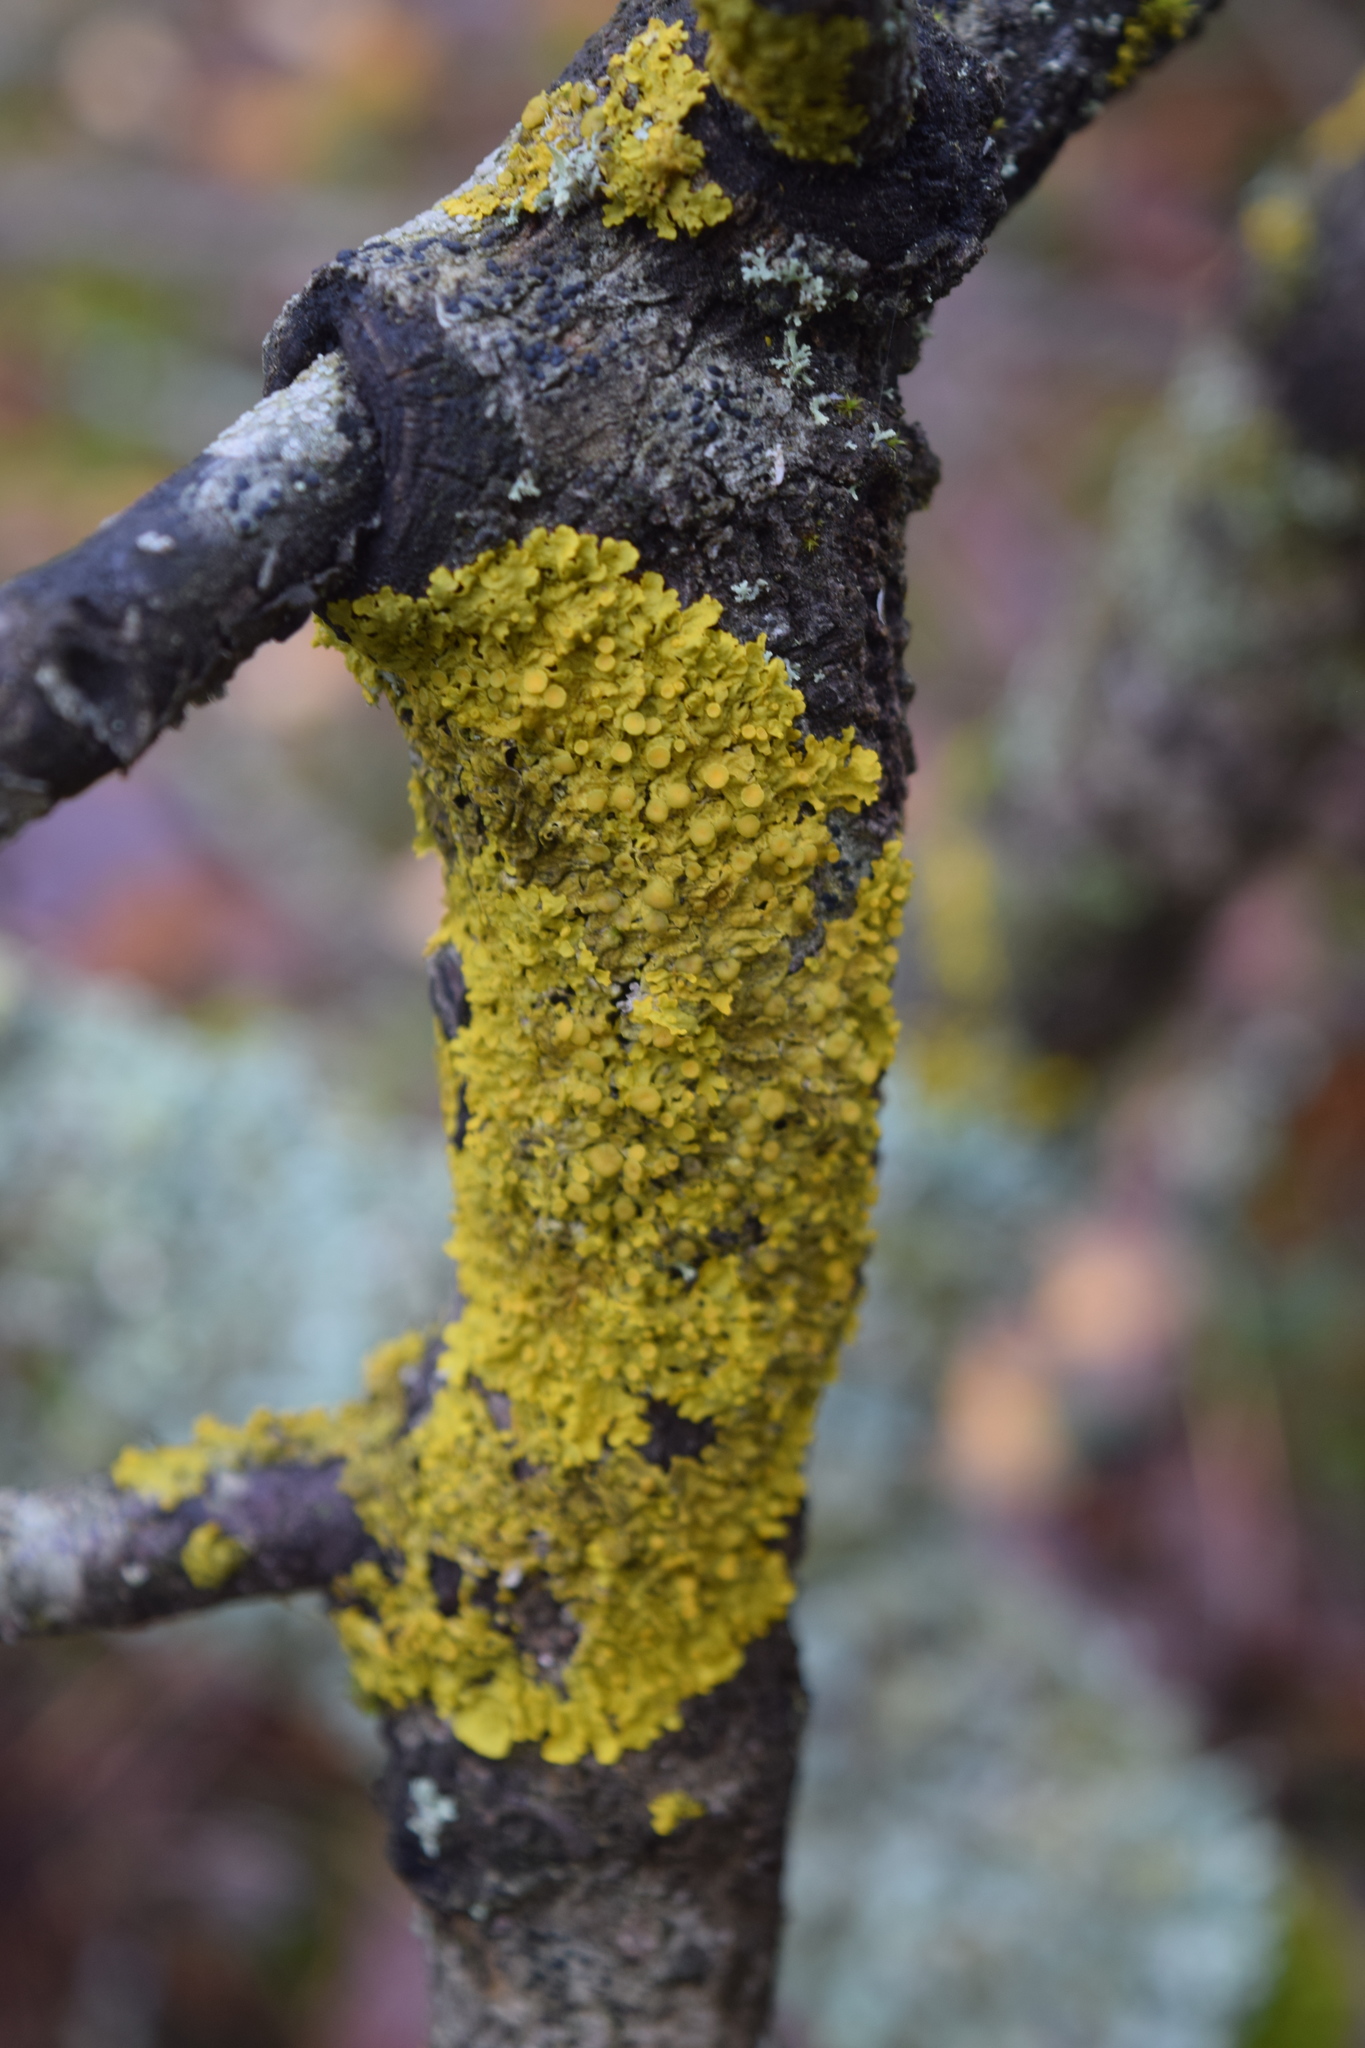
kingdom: Fungi
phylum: Ascomycota
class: Lecanoromycetes
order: Teloschistales
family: Teloschistaceae
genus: Xanthoria
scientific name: Xanthoria parietina
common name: Common orange lichen
